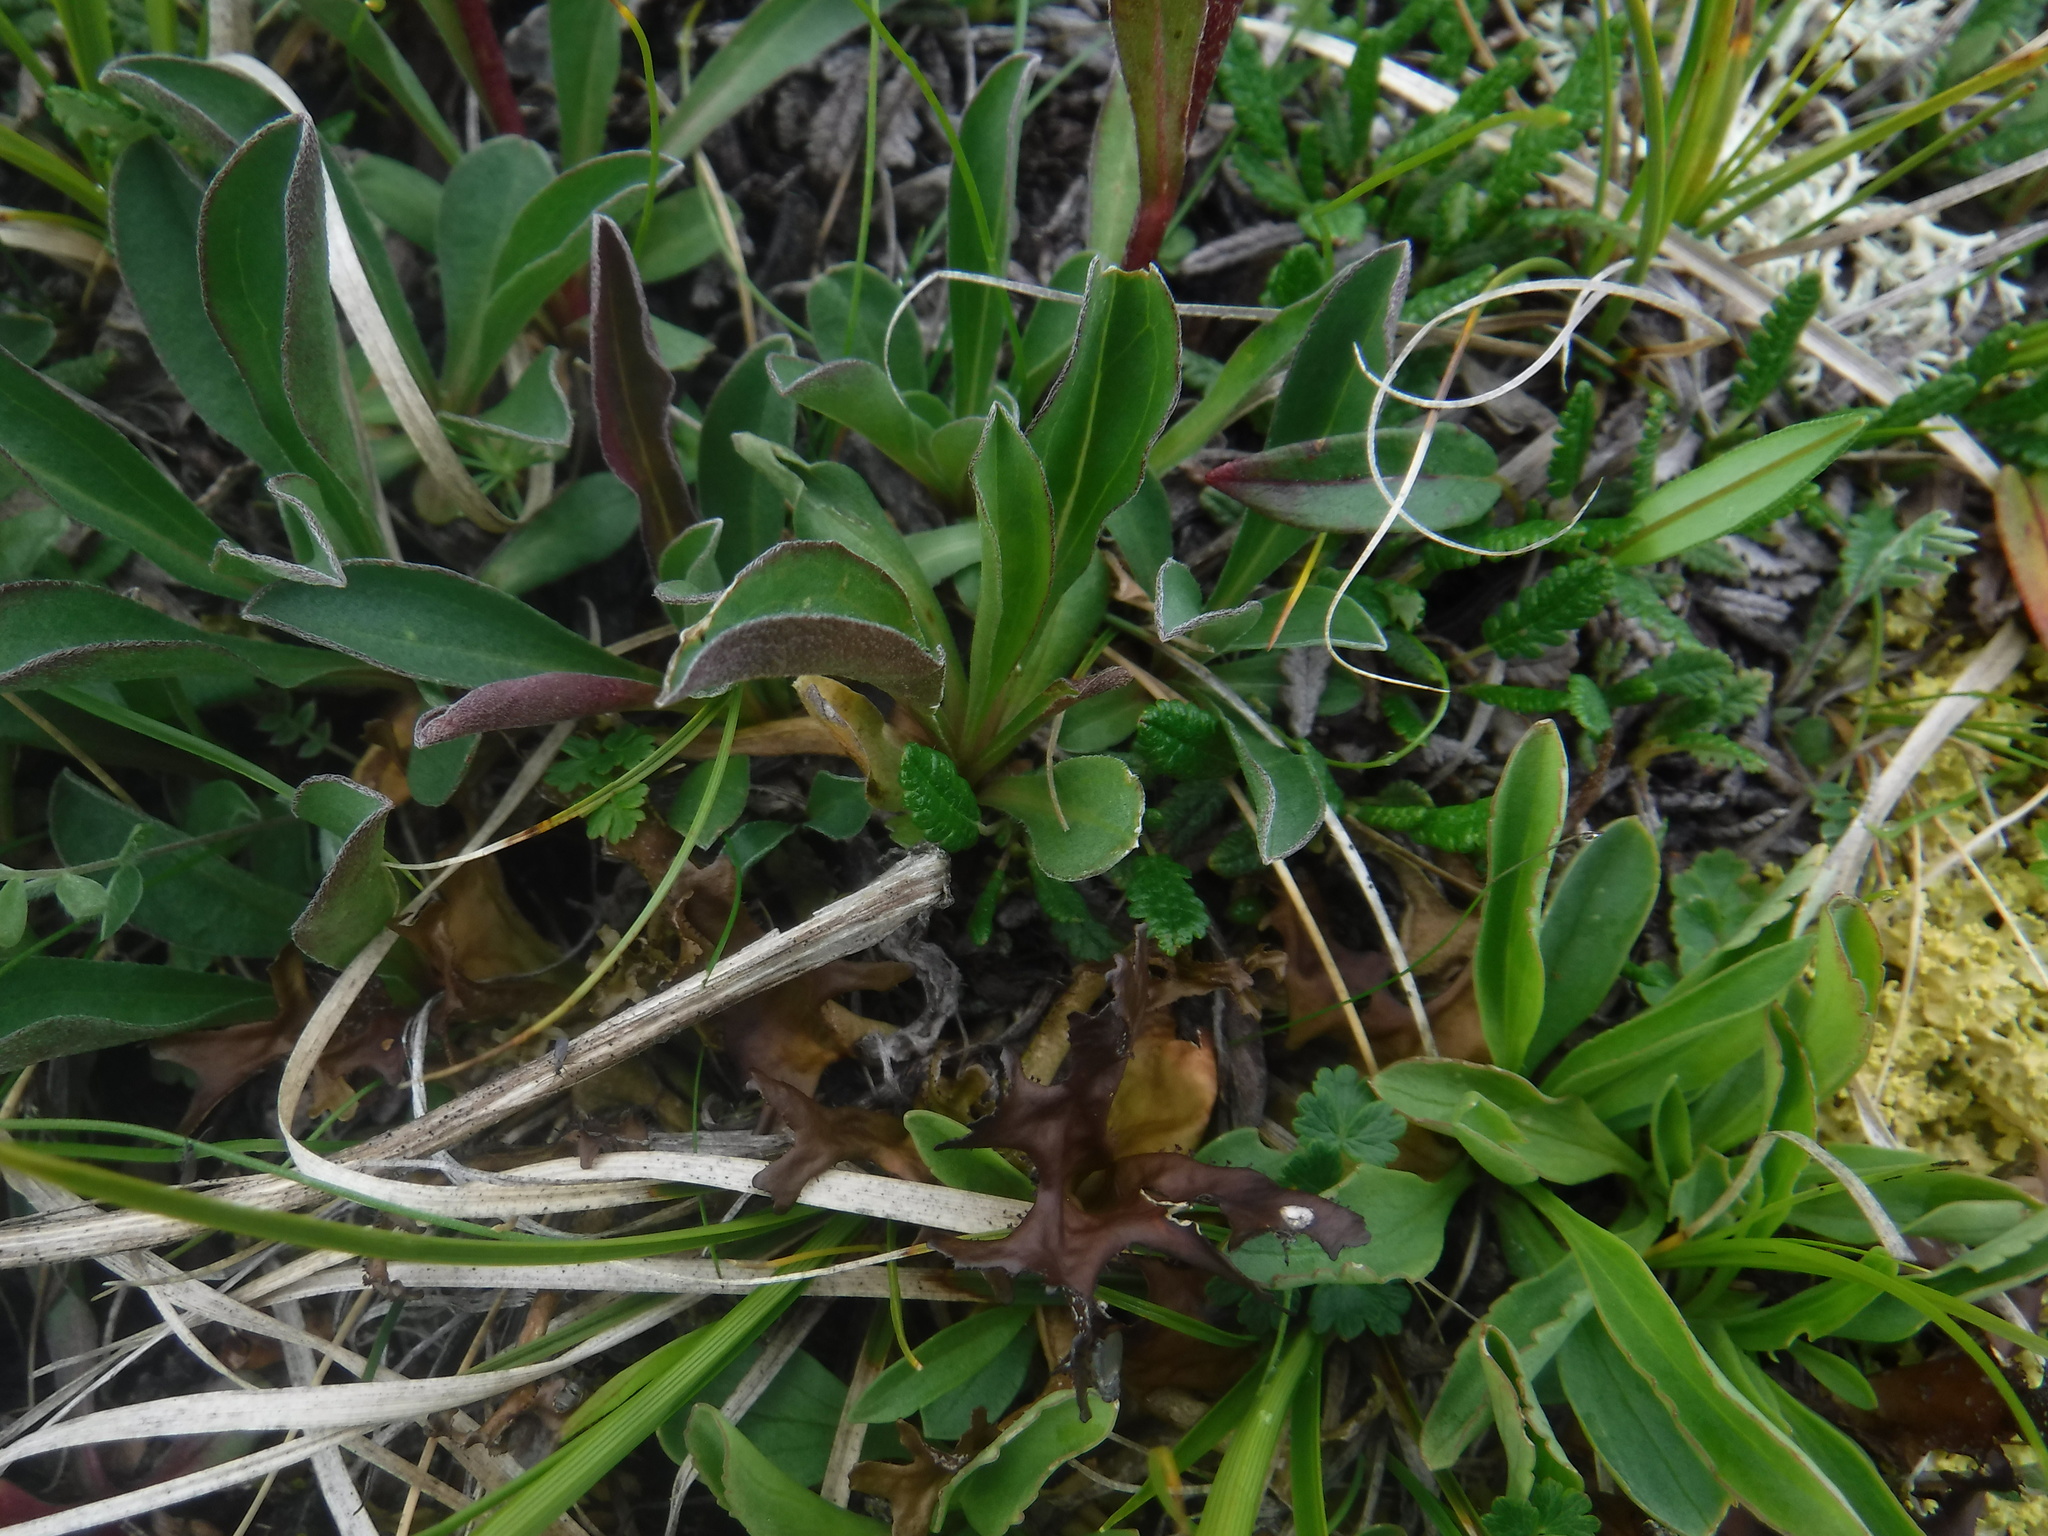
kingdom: Plantae
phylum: Tracheophyta
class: Magnoliopsida
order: Asterales
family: Asteraceae
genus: Aster
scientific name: Aster alpinus
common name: Alpine aster
